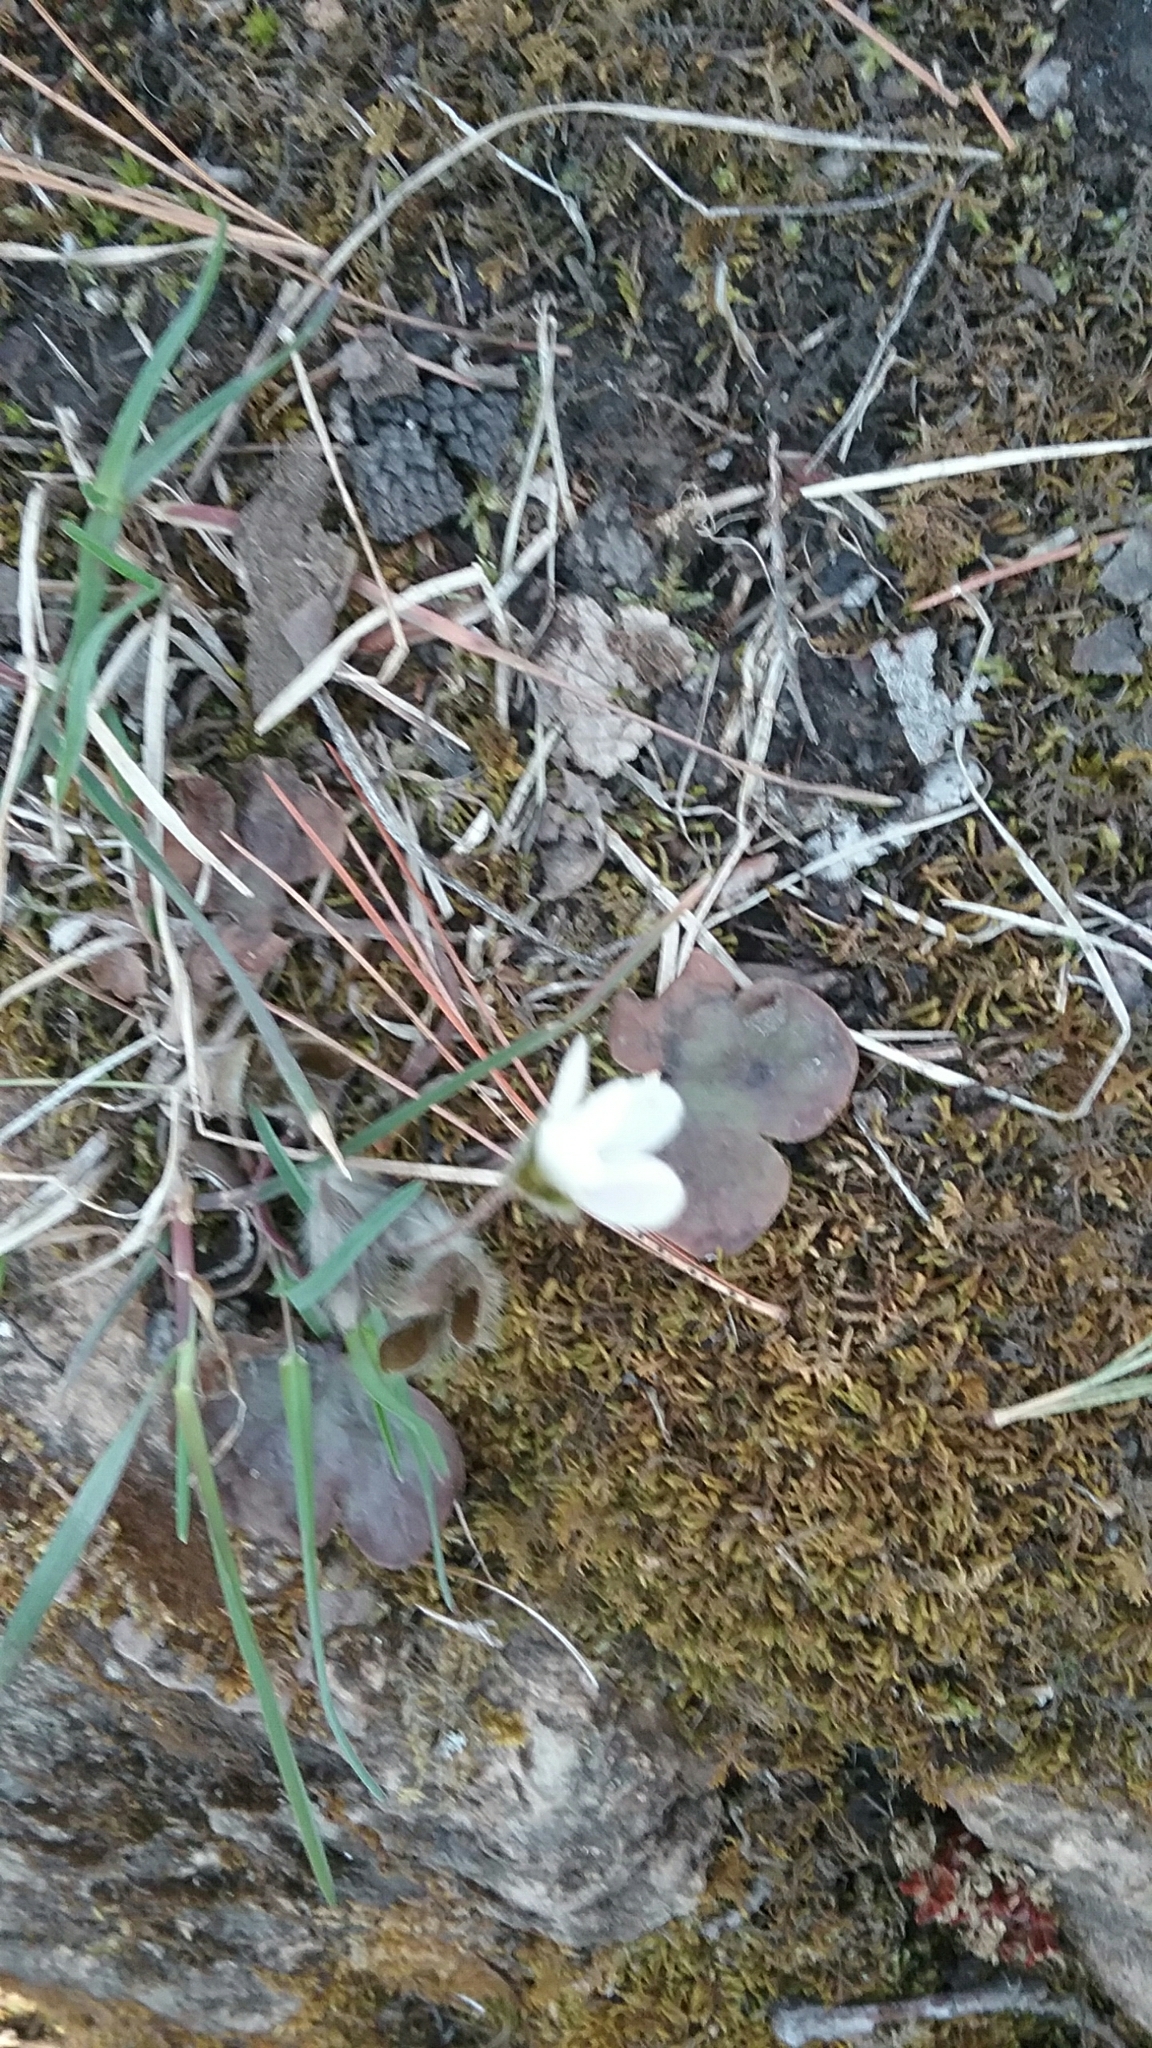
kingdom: Plantae
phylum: Tracheophyta
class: Magnoliopsida
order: Ranunculales
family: Ranunculaceae
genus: Hepatica
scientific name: Hepatica americana
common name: American hepatica
